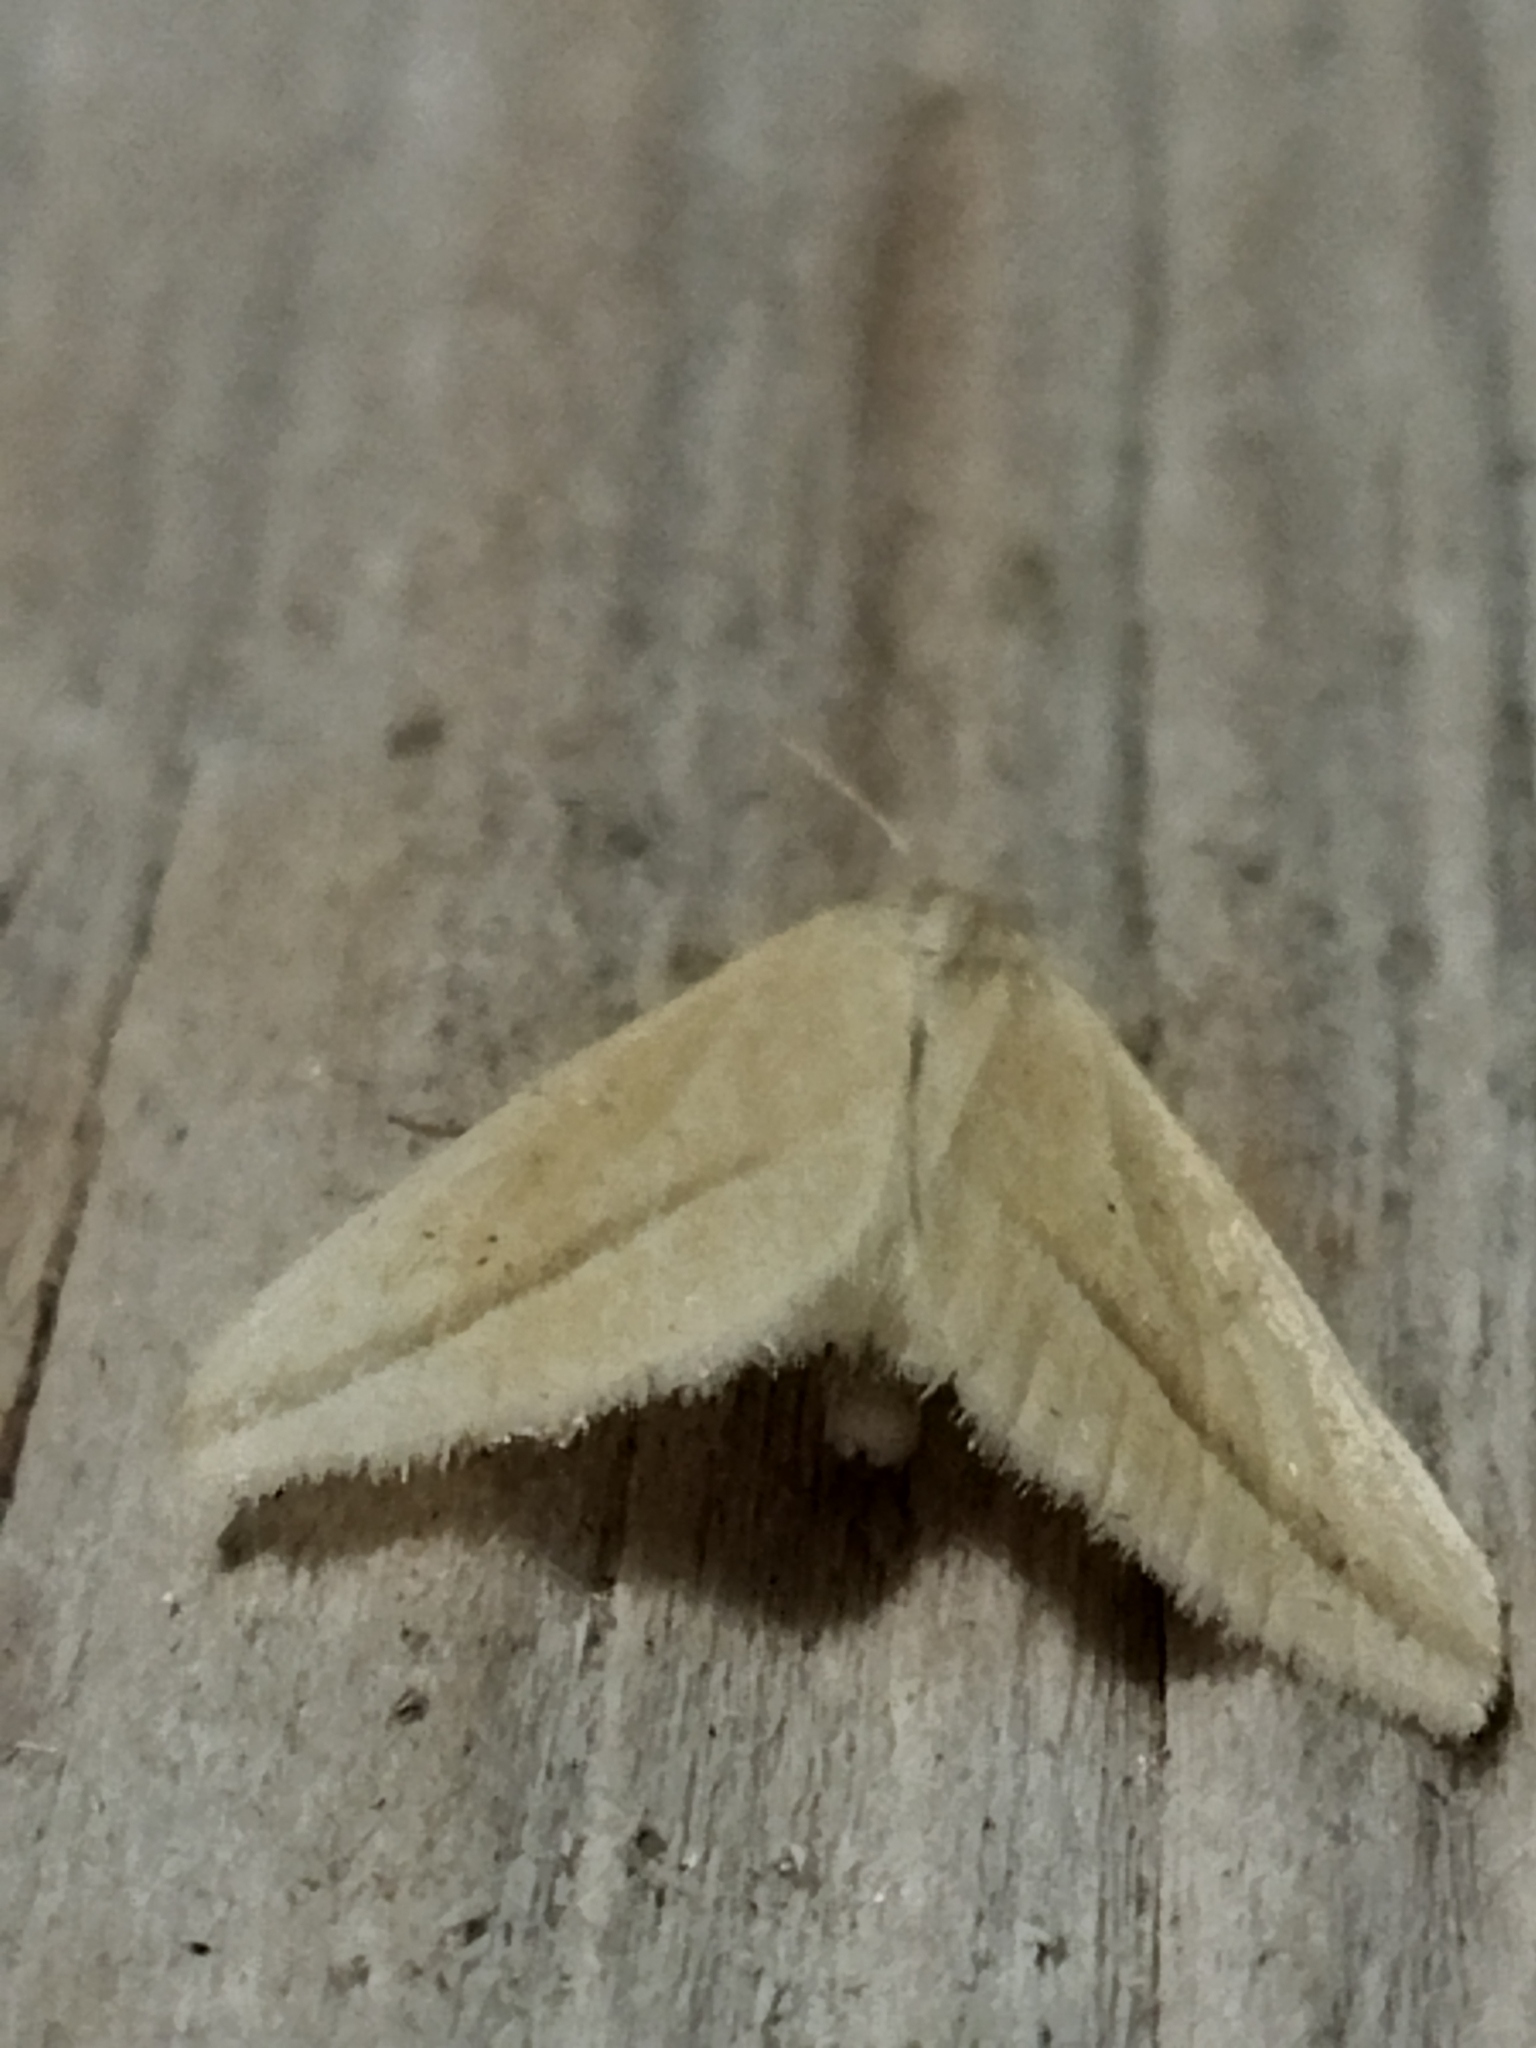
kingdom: Animalia
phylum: Arthropoda
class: Insecta
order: Lepidoptera
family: Geometridae
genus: Rhodometra
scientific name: Rhodometra sacraria
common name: Vestal
